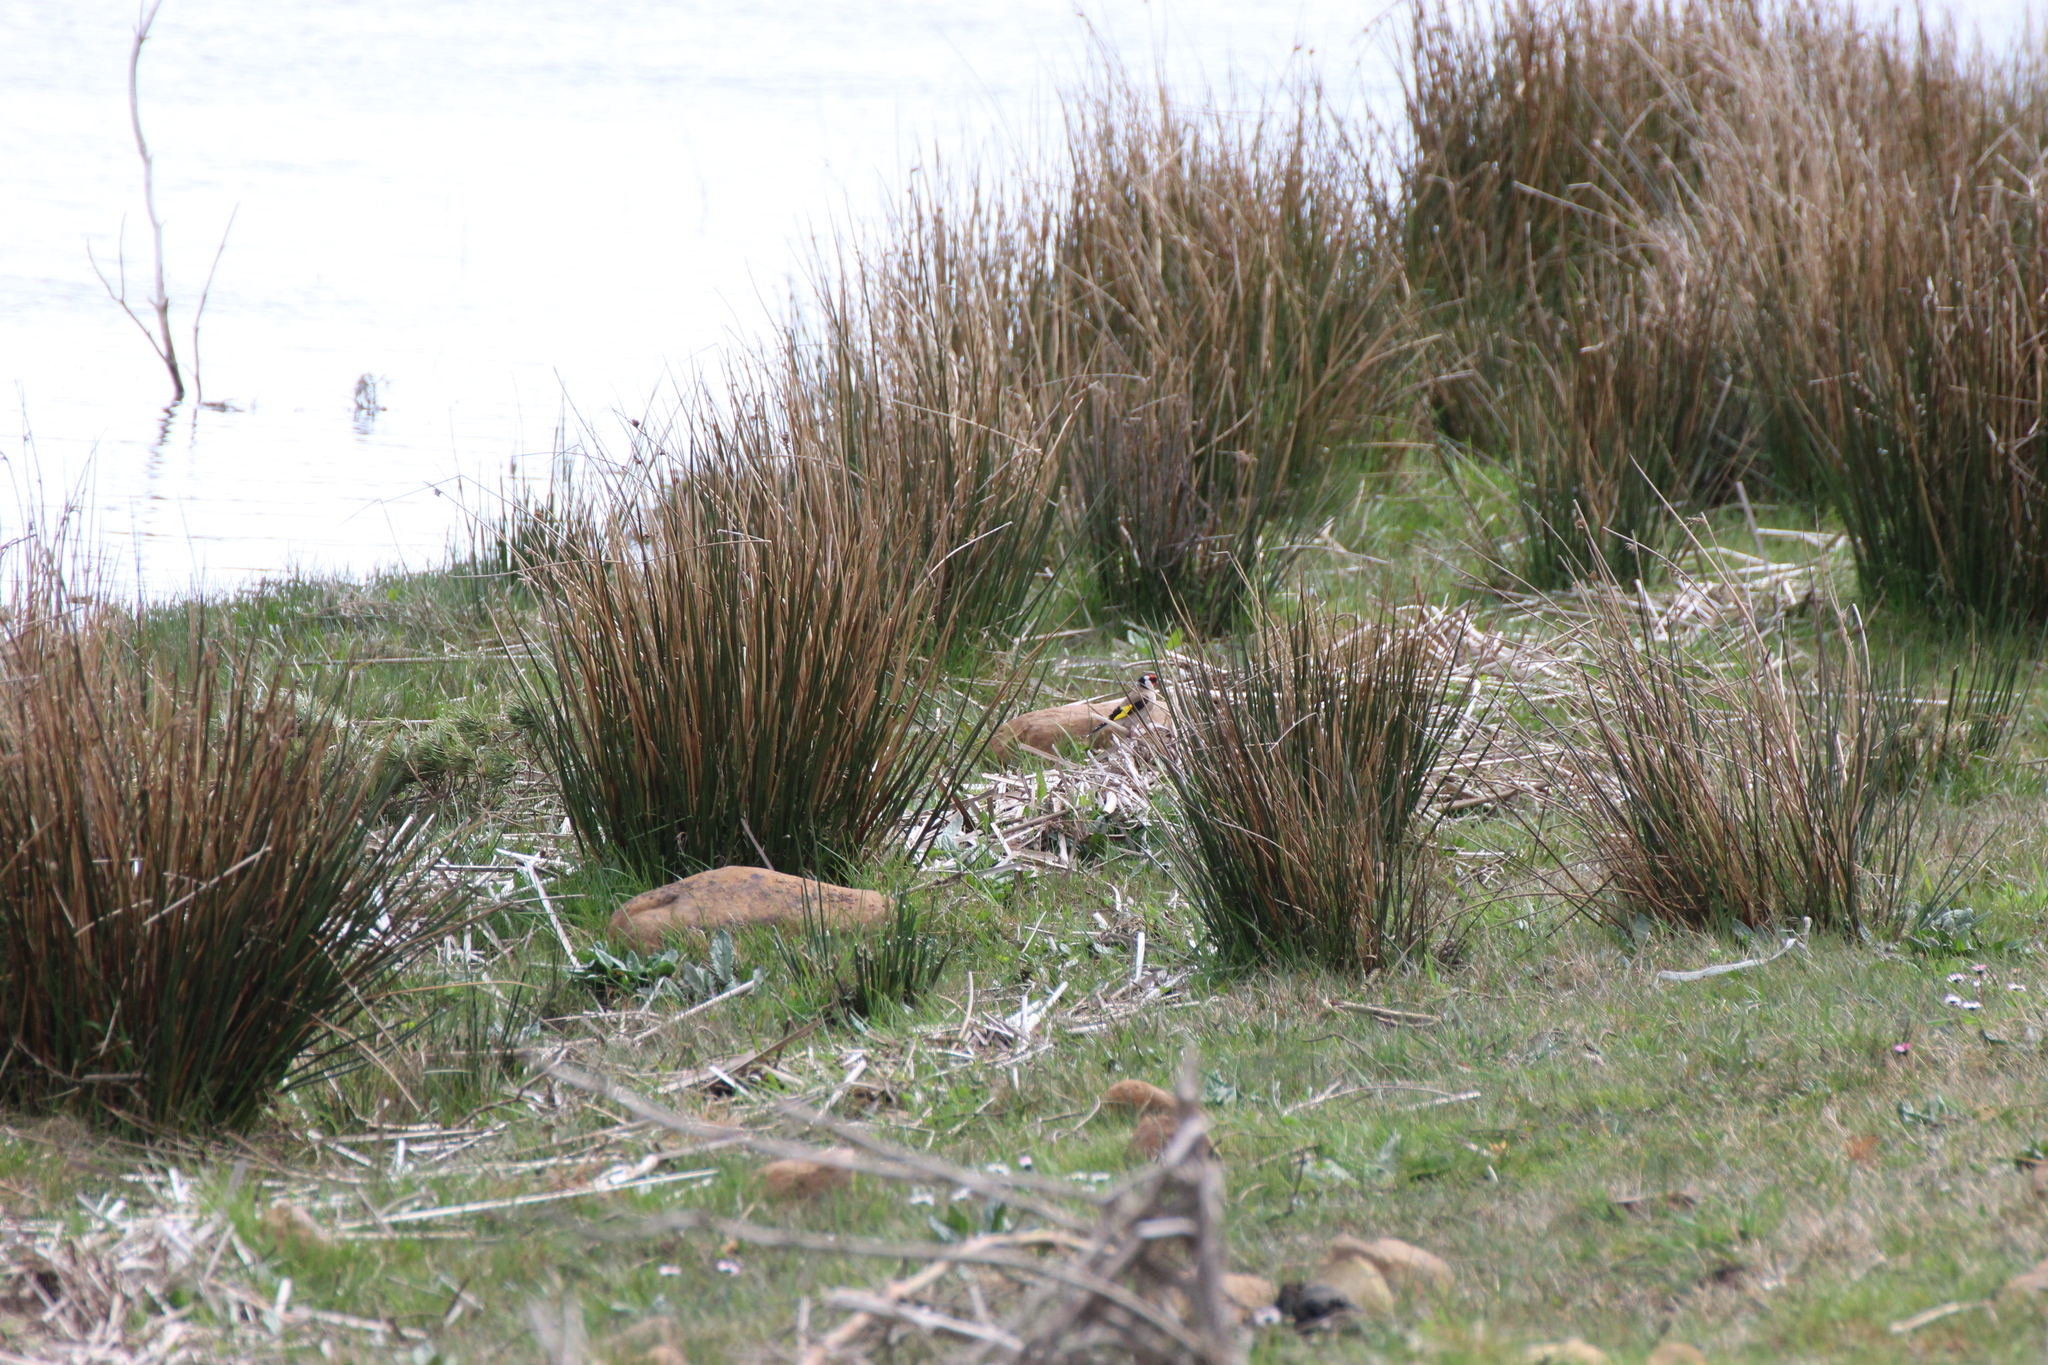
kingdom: Animalia
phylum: Chordata
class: Aves
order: Passeriformes
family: Fringillidae
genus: Carduelis
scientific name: Carduelis carduelis
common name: European goldfinch
